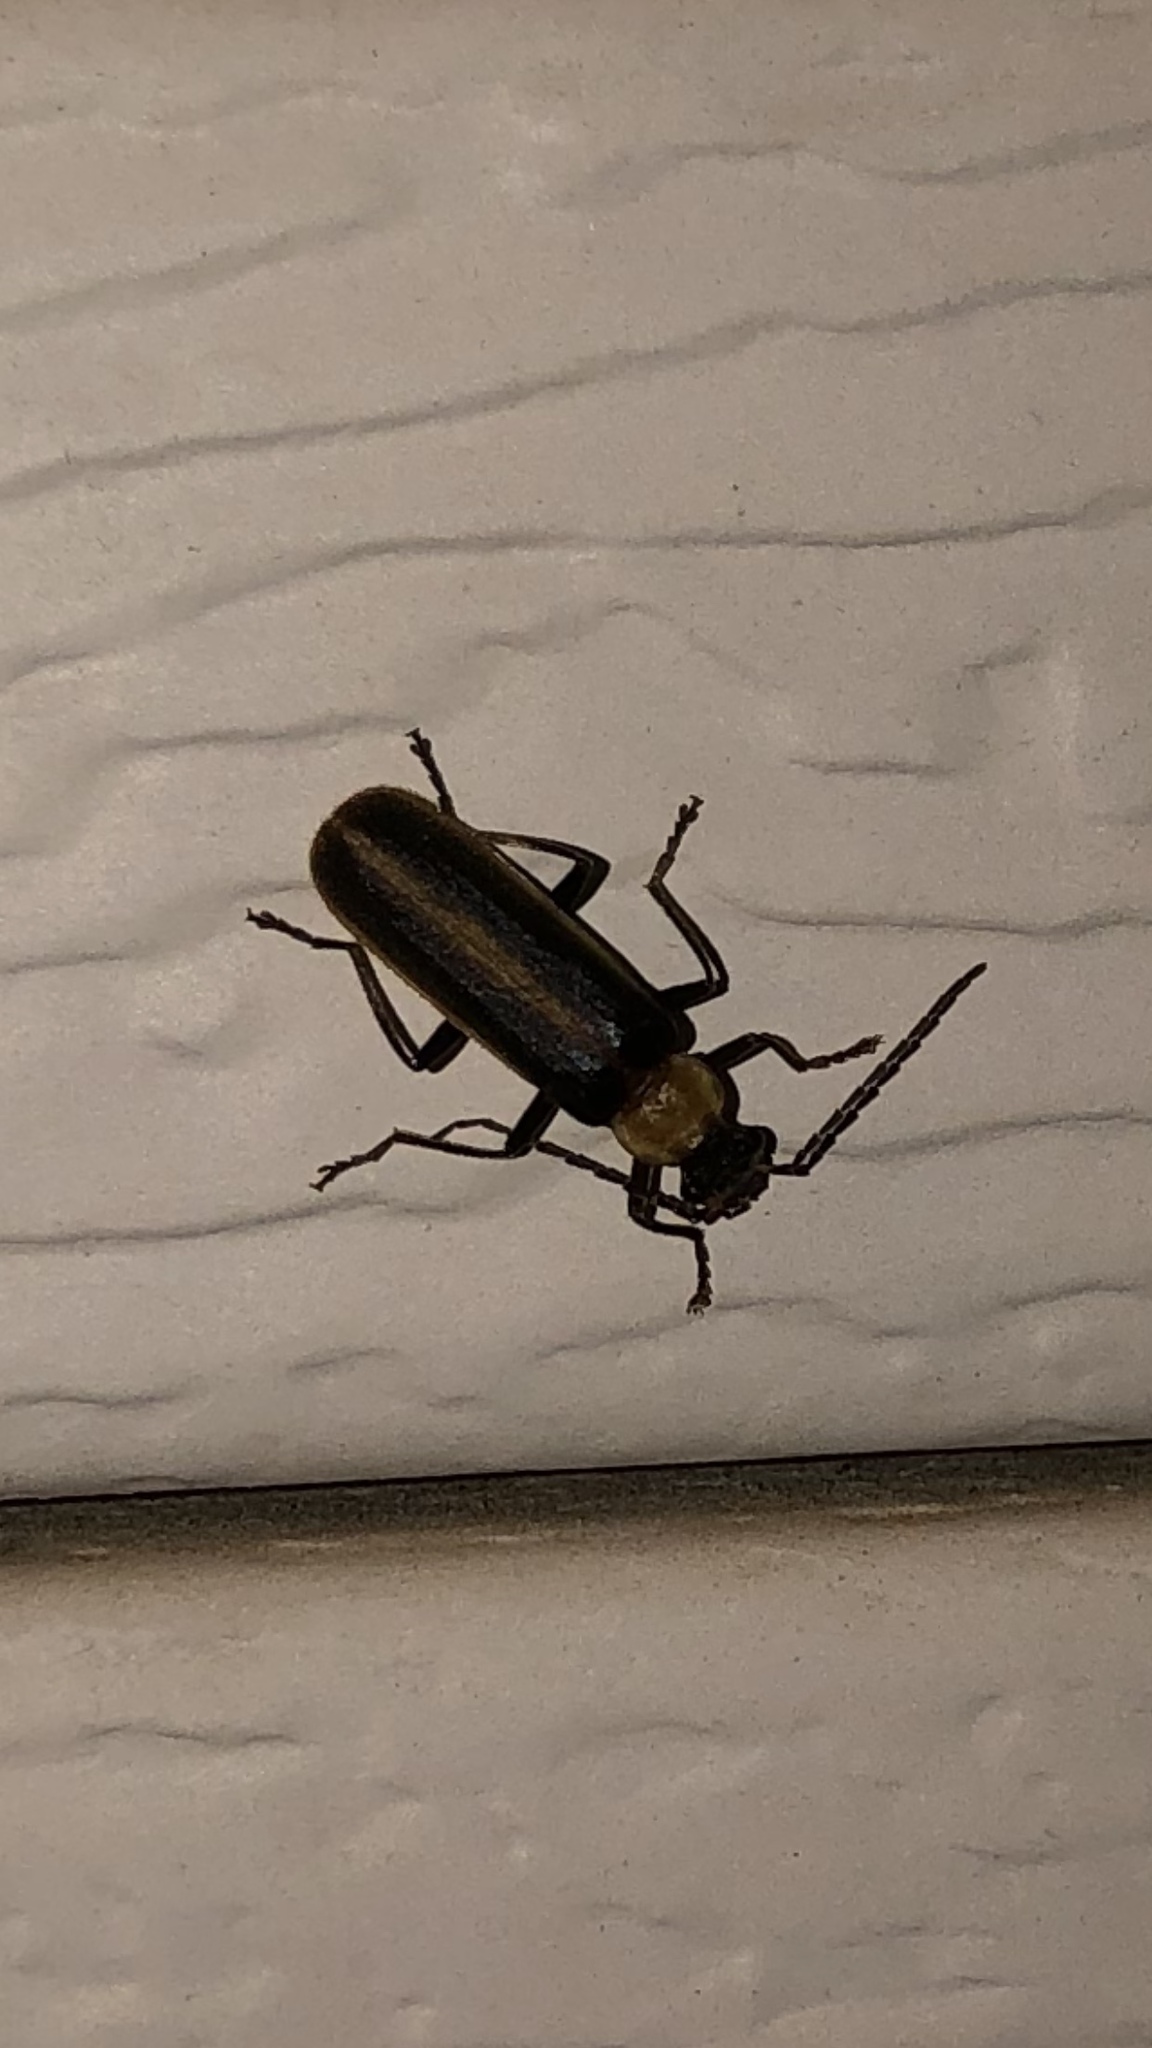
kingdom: Animalia
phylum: Arthropoda
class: Insecta
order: Coleoptera
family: Cantharidae
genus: Podabrus
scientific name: Podabrus flavicollis
